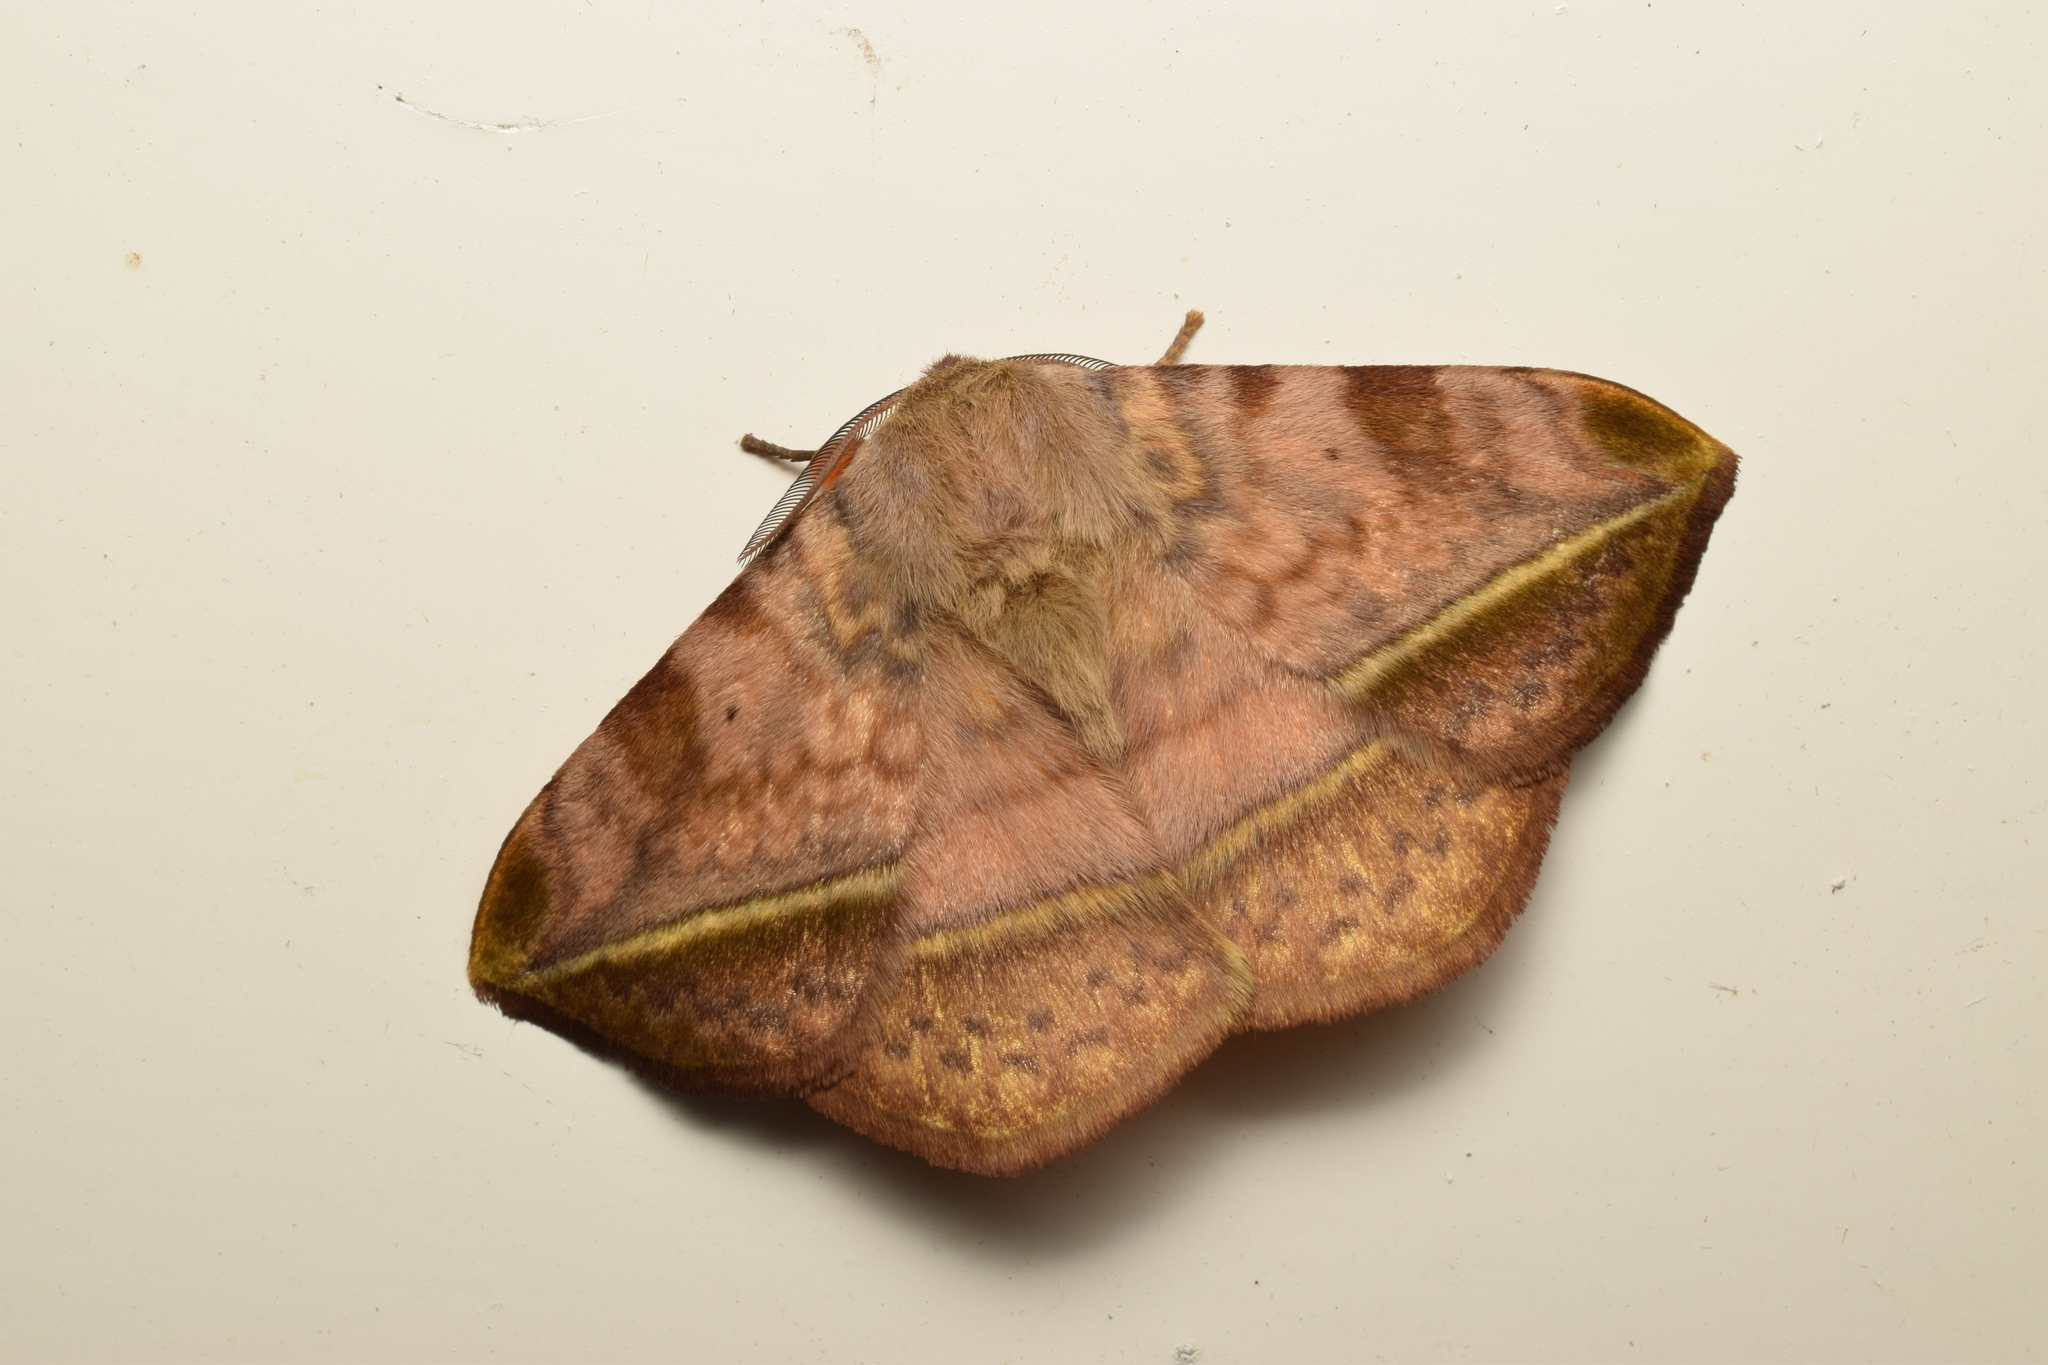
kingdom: Animalia
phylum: Arthropoda
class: Insecta
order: Lepidoptera
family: Eupterotidae
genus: Apha
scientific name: Apha aequalis
